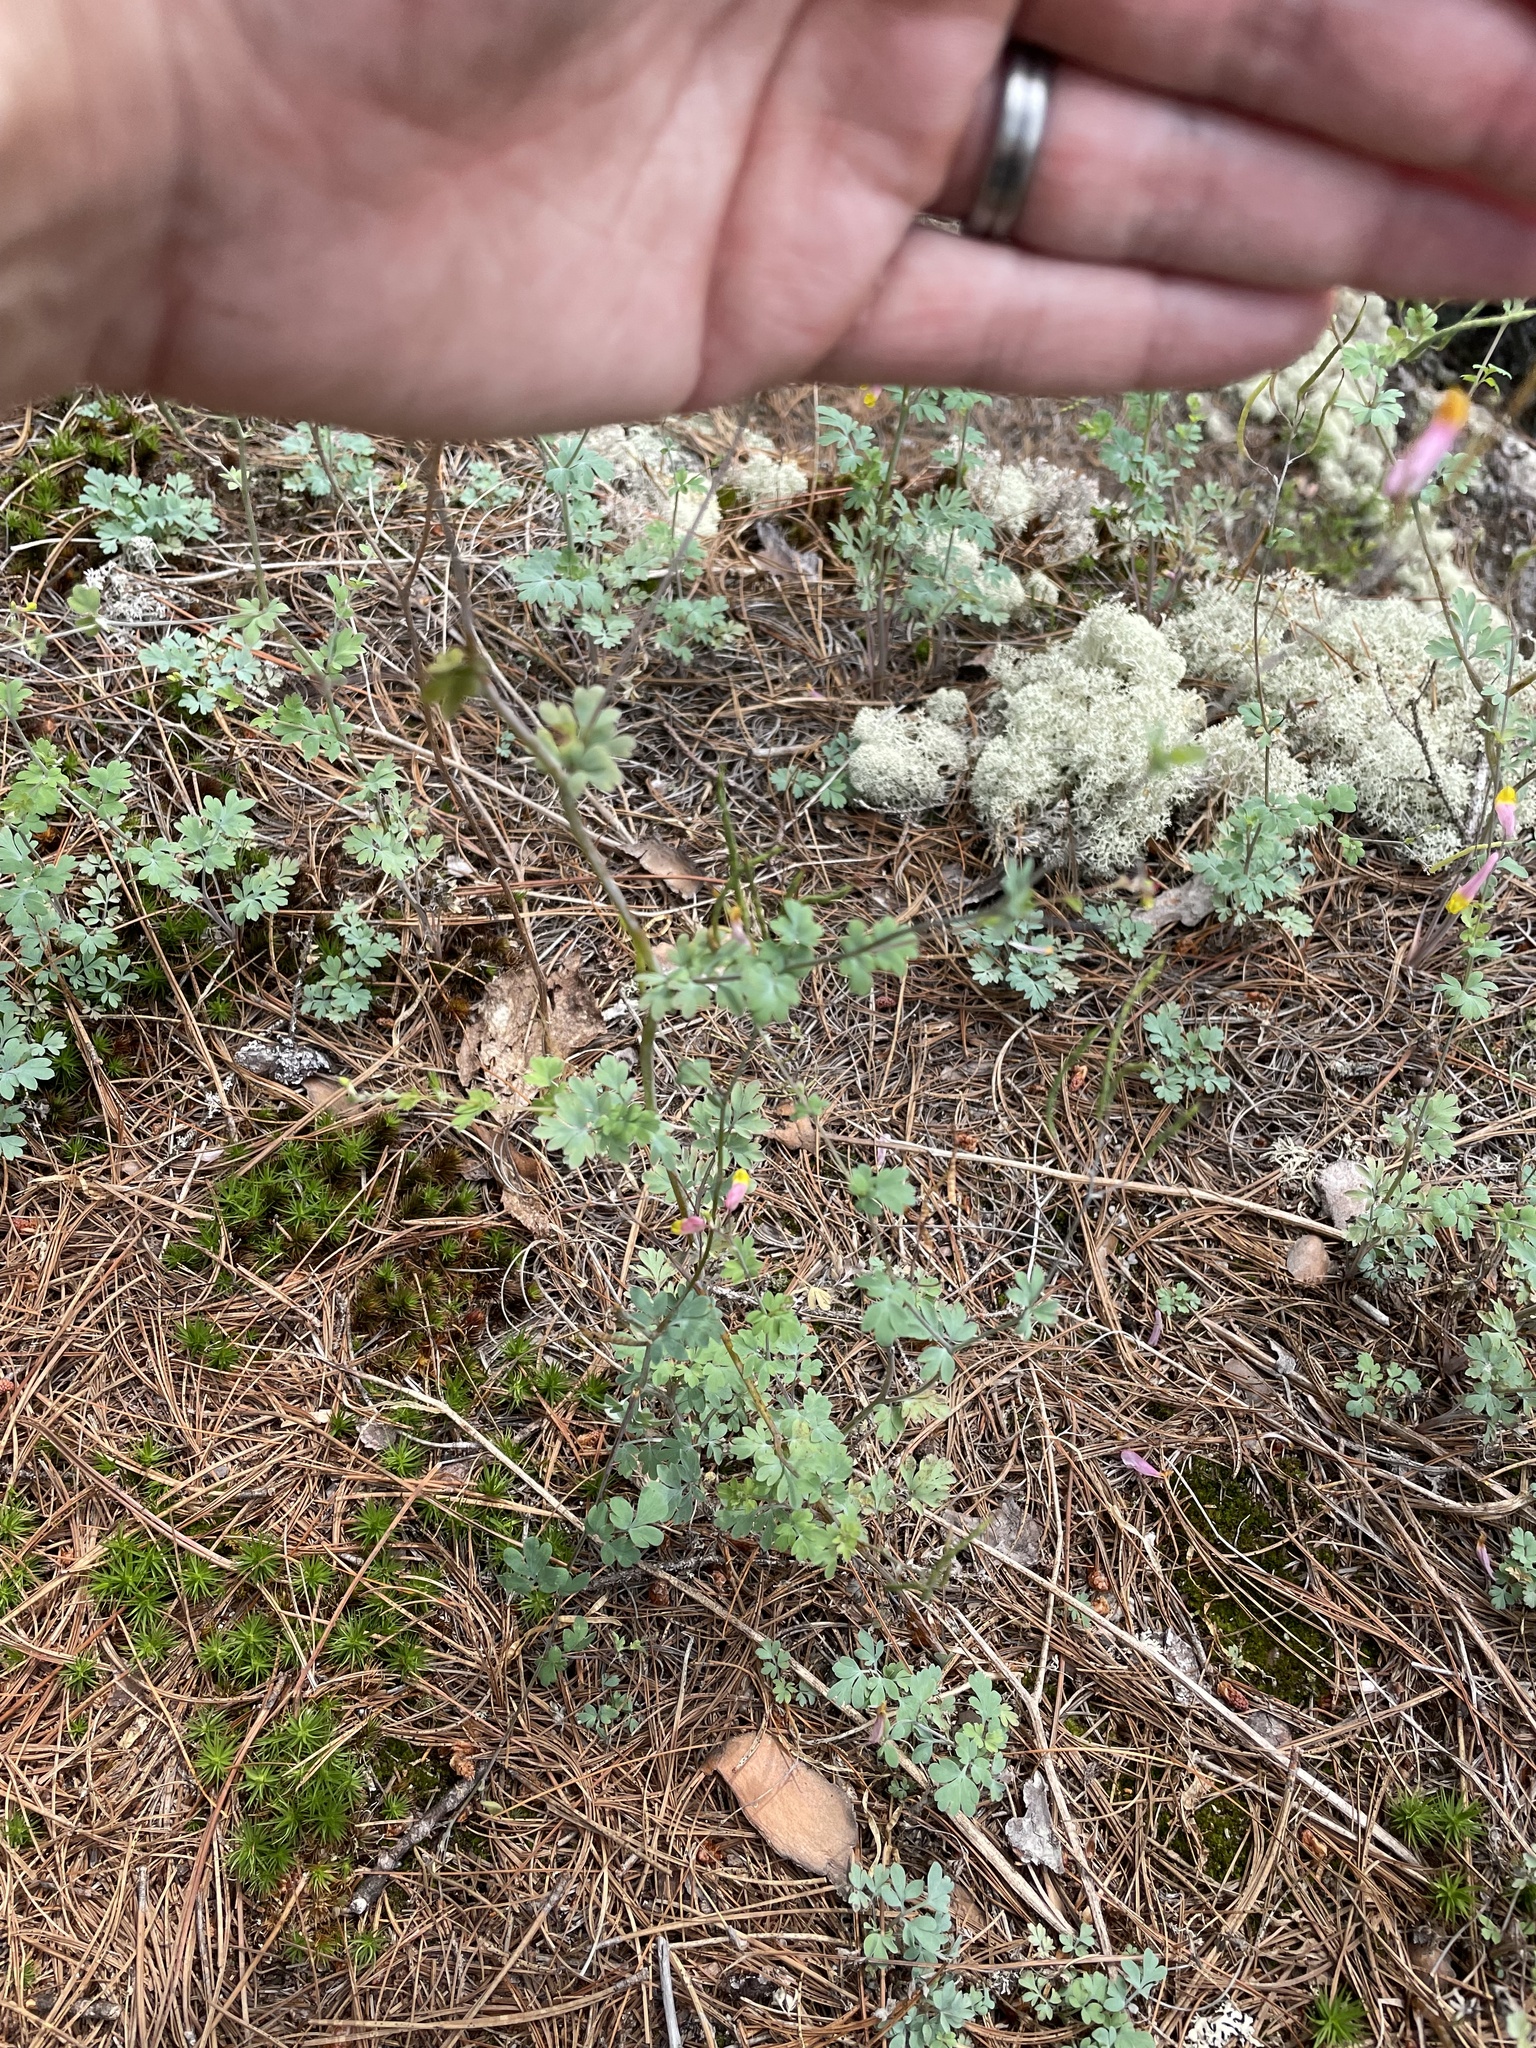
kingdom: Plantae
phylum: Tracheophyta
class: Magnoliopsida
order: Ranunculales
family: Papaveraceae
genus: Capnoides
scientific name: Capnoides sempervirens
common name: Rock harlequin
